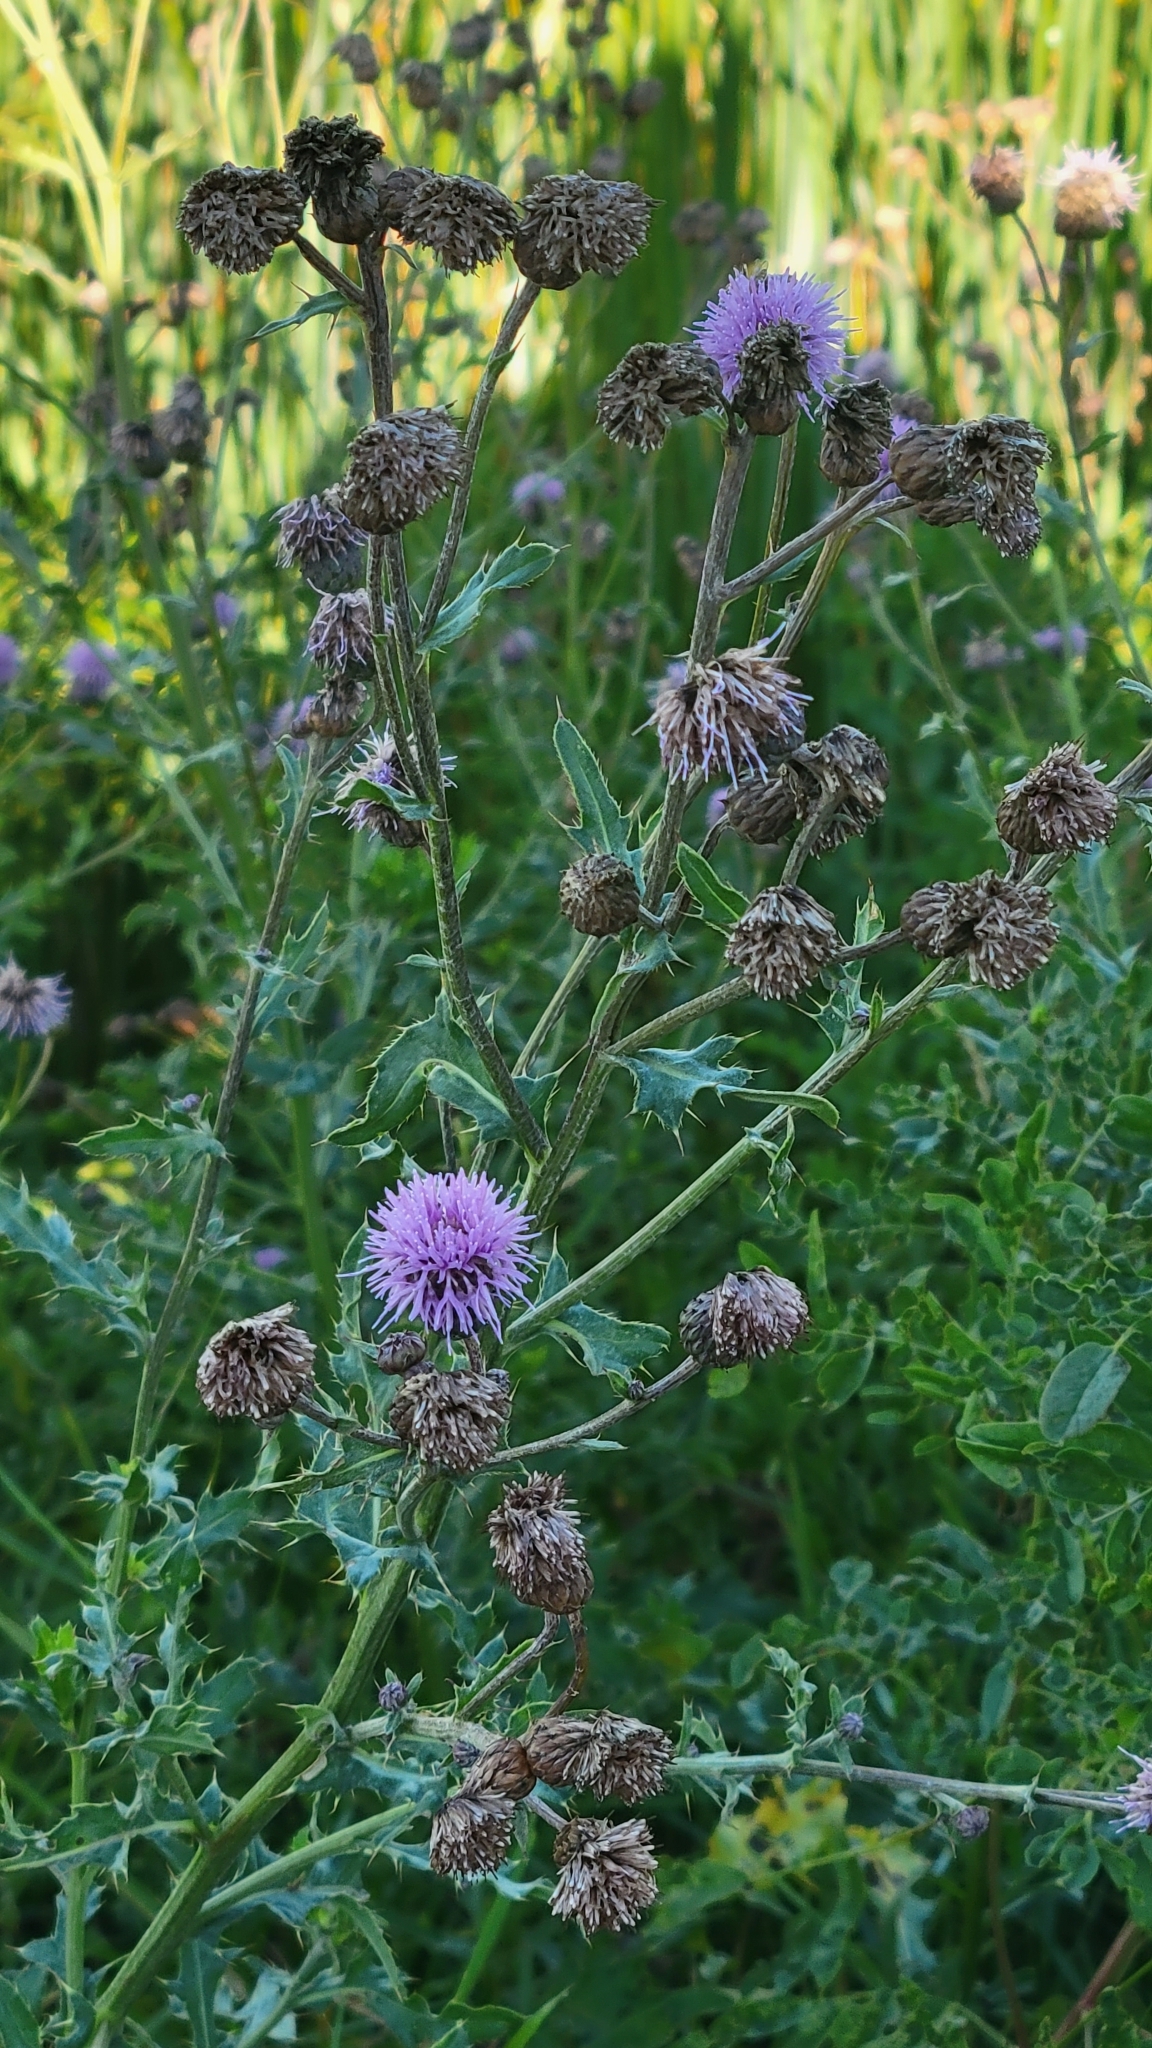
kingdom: Plantae
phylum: Tracheophyta
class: Magnoliopsida
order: Asterales
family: Asteraceae
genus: Cirsium
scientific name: Cirsium arvense
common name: Creeping thistle
